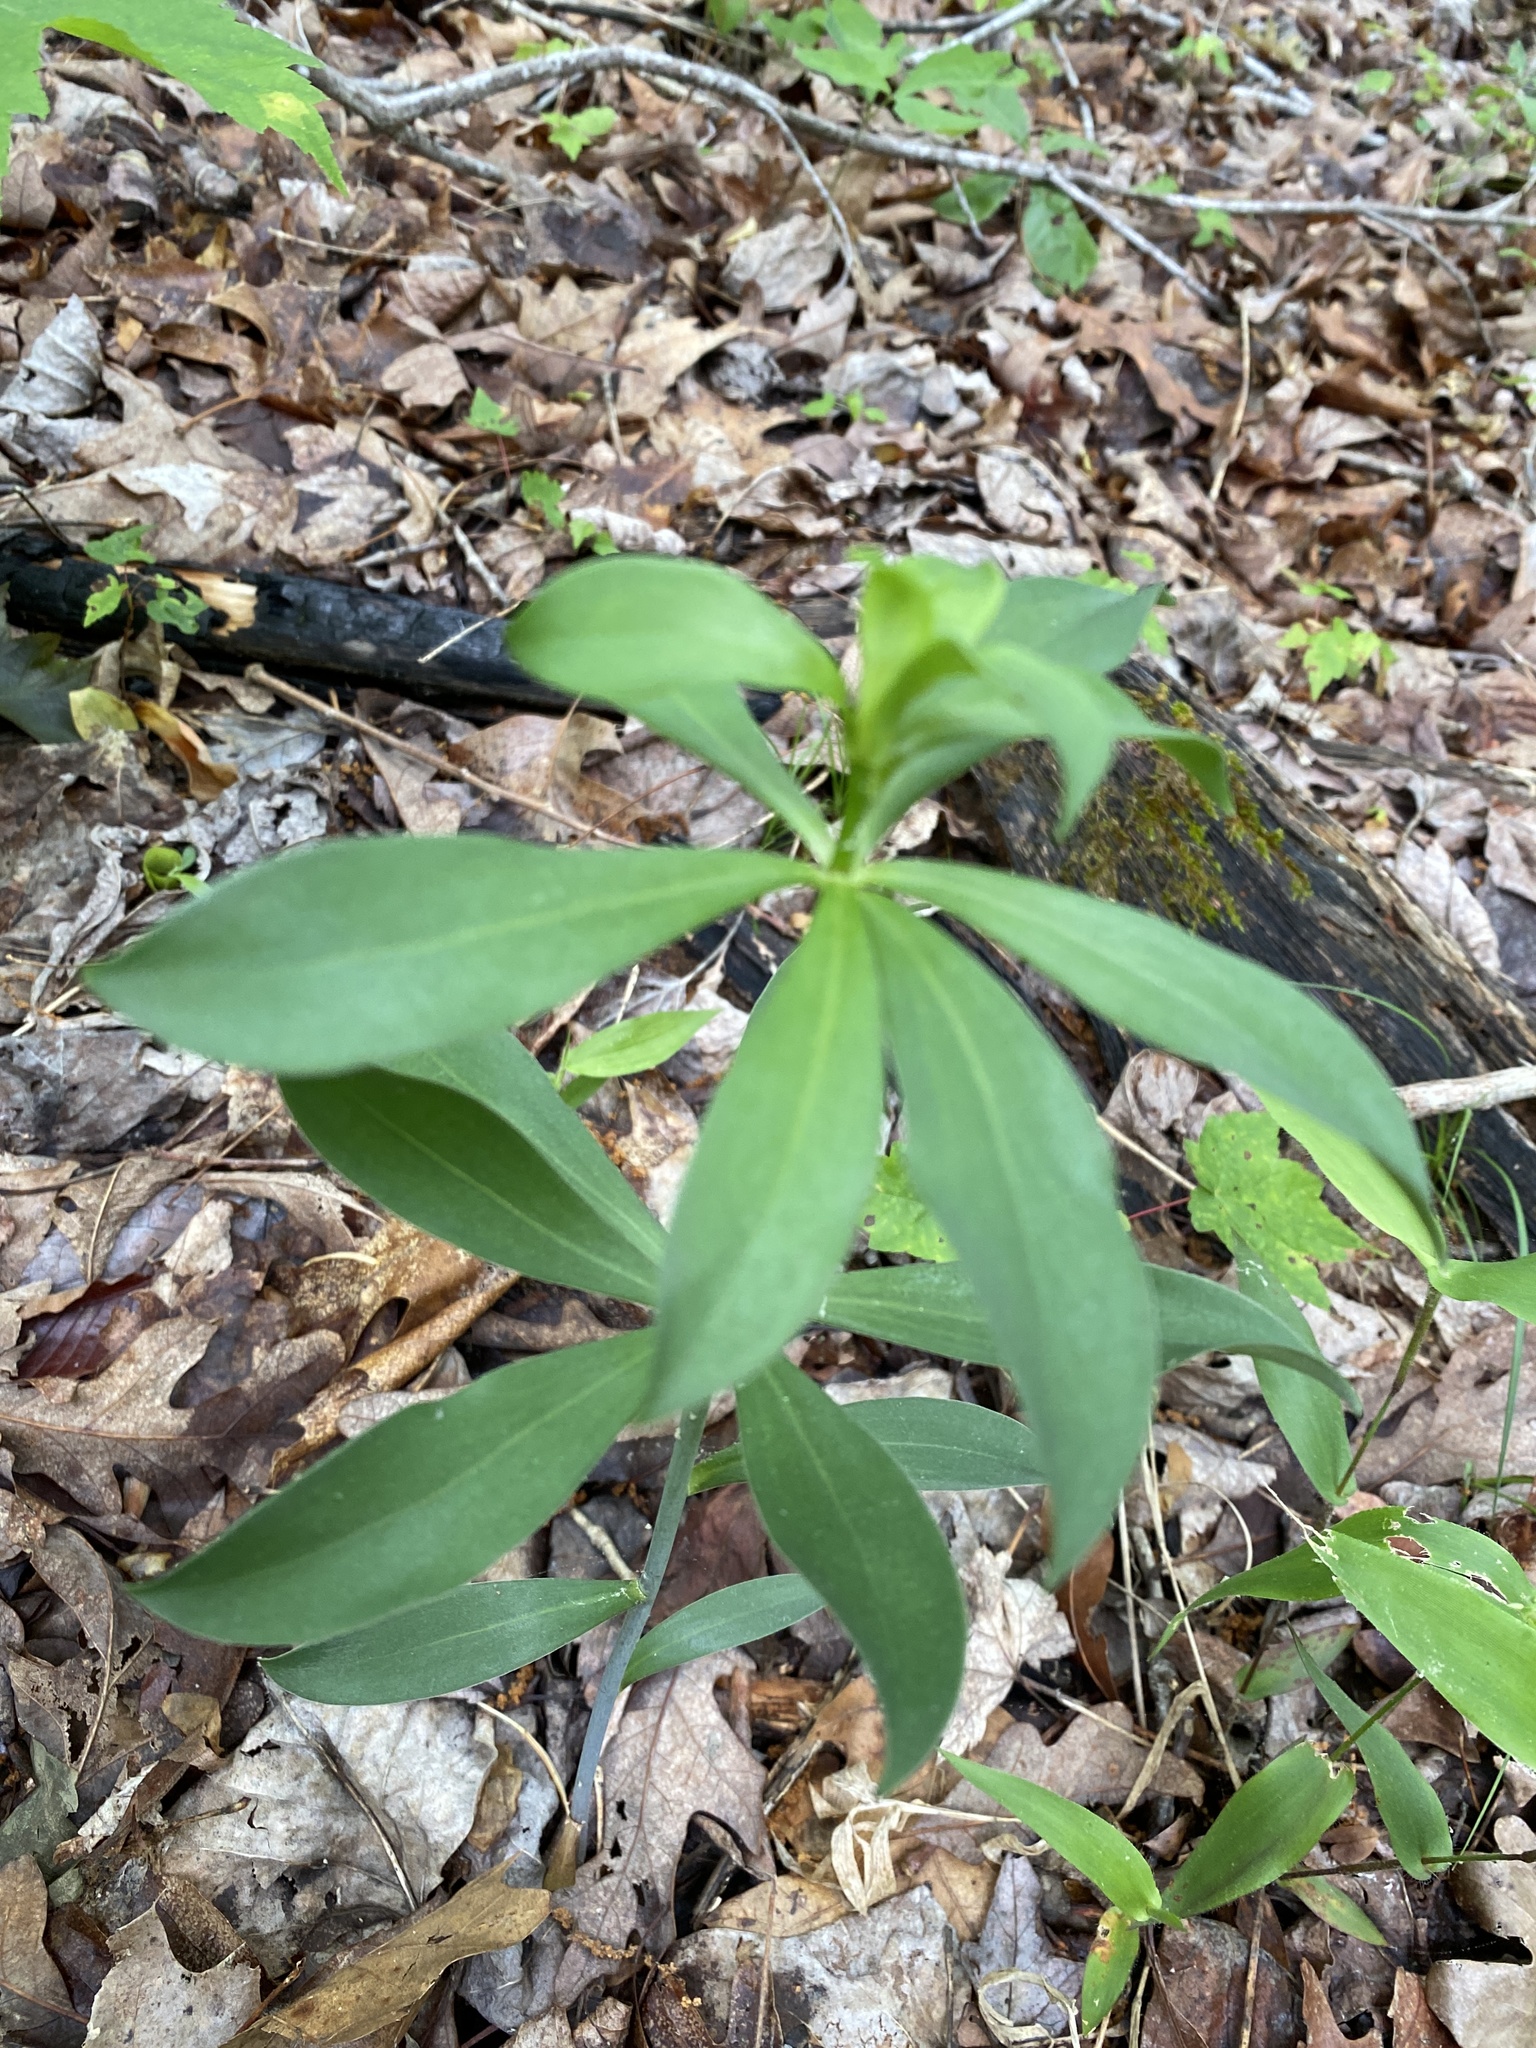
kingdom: Plantae
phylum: Tracheophyta
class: Liliopsida
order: Liliales
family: Liliaceae
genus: Lilium
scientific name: Lilium michauxii
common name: Carolina lily
